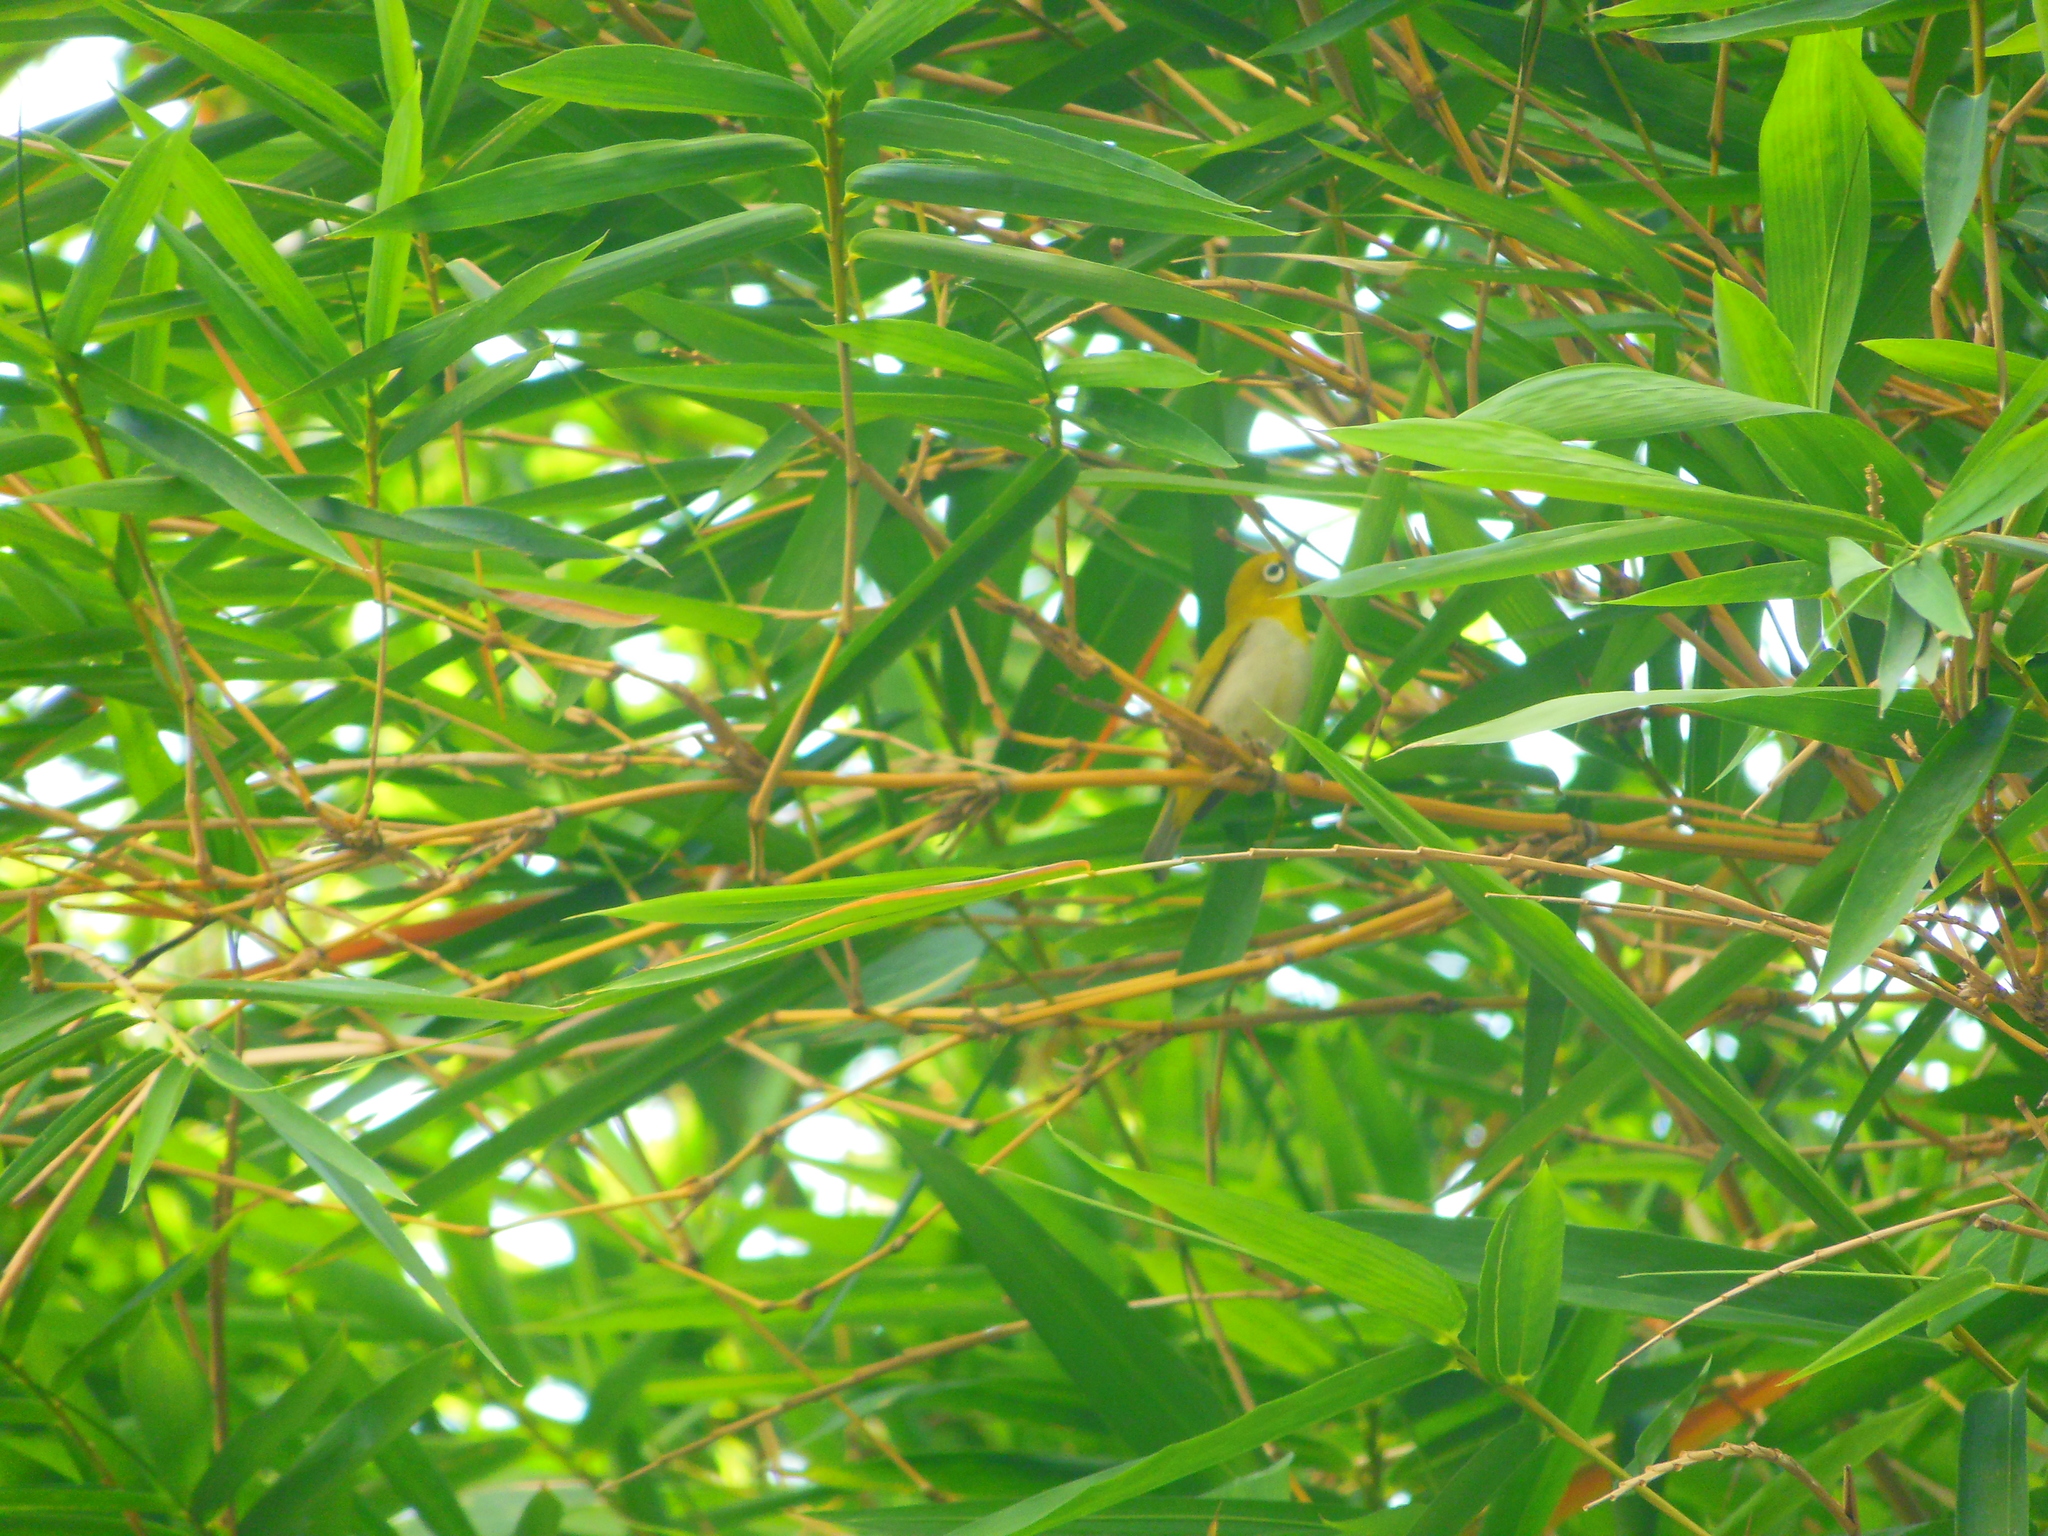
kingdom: Animalia
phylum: Chordata
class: Aves
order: Passeriformes
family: Zosteropidae
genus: Zosterops
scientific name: Zosterops palpebrosus
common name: Oriental white-eye
